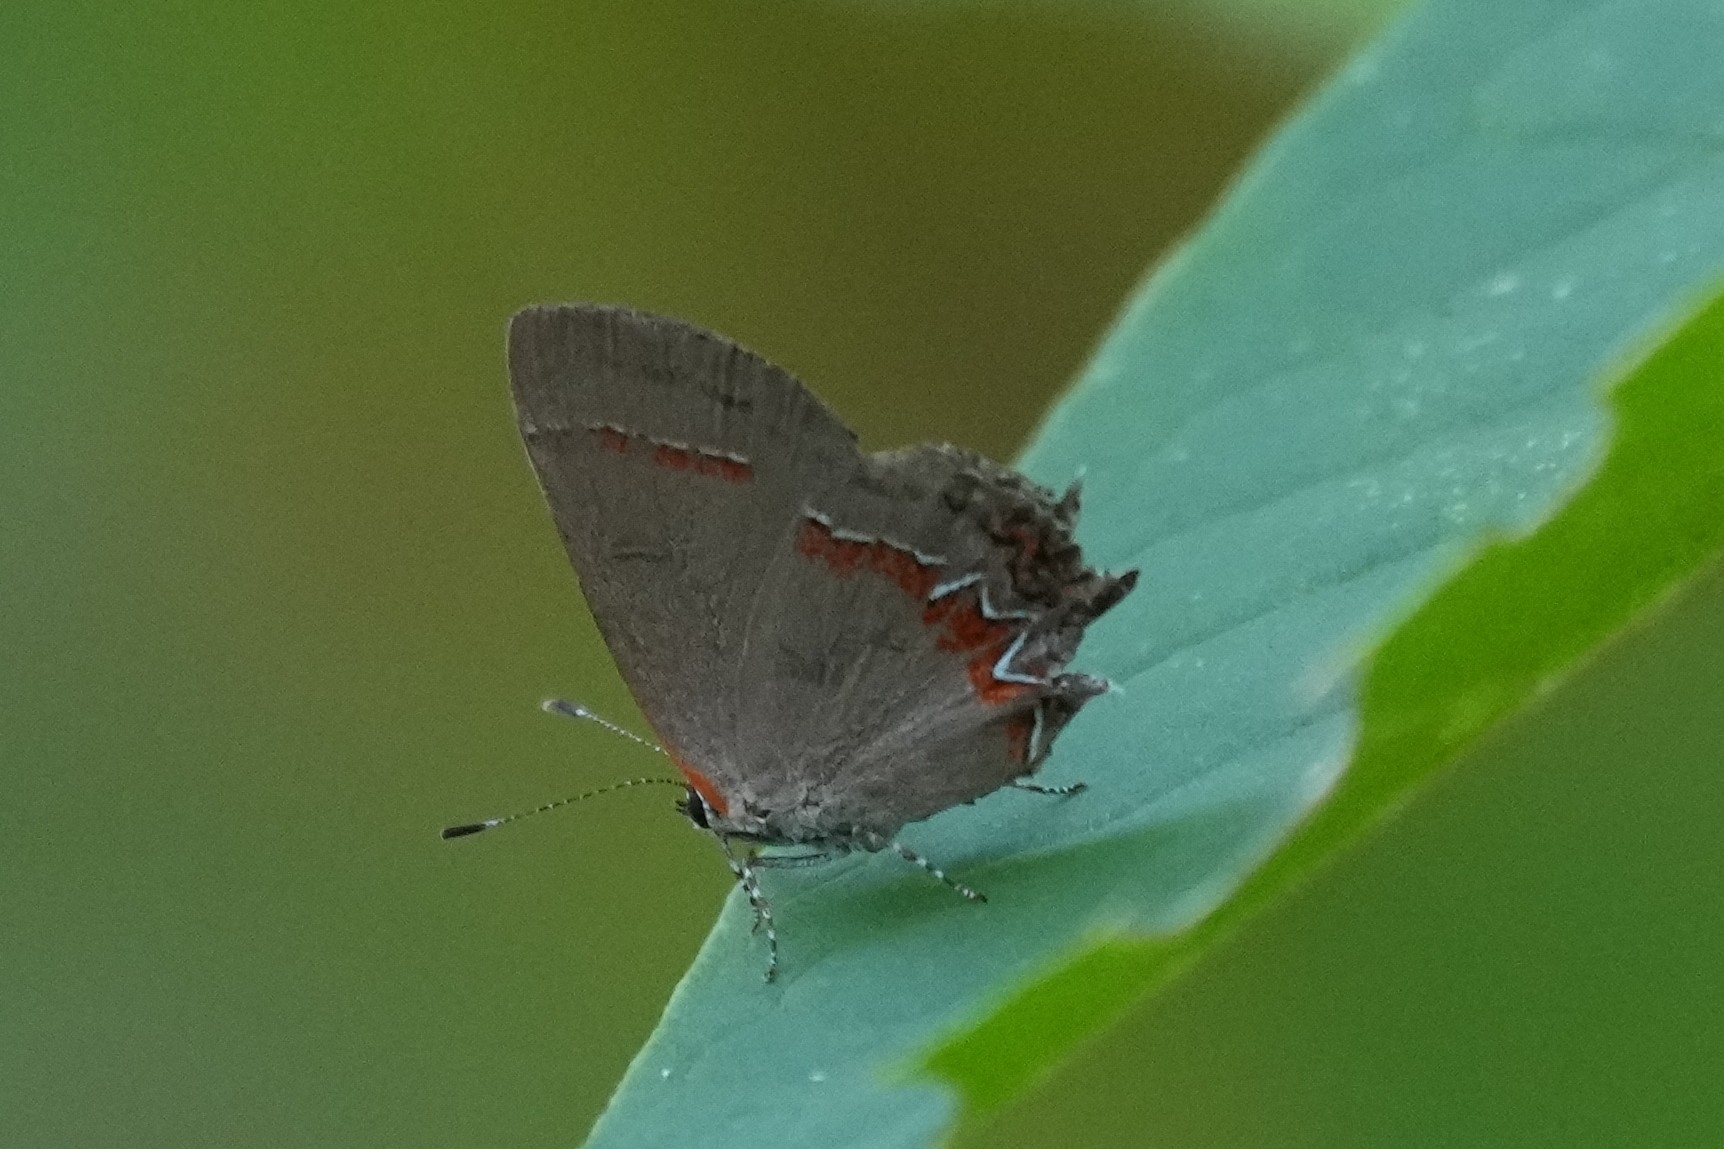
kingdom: Animalia
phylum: Arthropoda
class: Insecta
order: Lepidoptera
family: Lycaenidae
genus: Calycopis
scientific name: Calycopis cecrops
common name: Red-banded hairstreak
